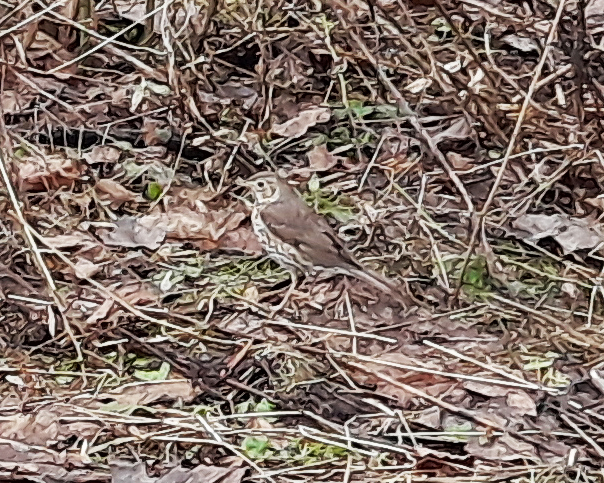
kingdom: Animalia
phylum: Chordata
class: Aves
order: Passeriformes
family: Turdidae
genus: Turdus
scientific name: Turdus philomelos
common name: Song thrush
